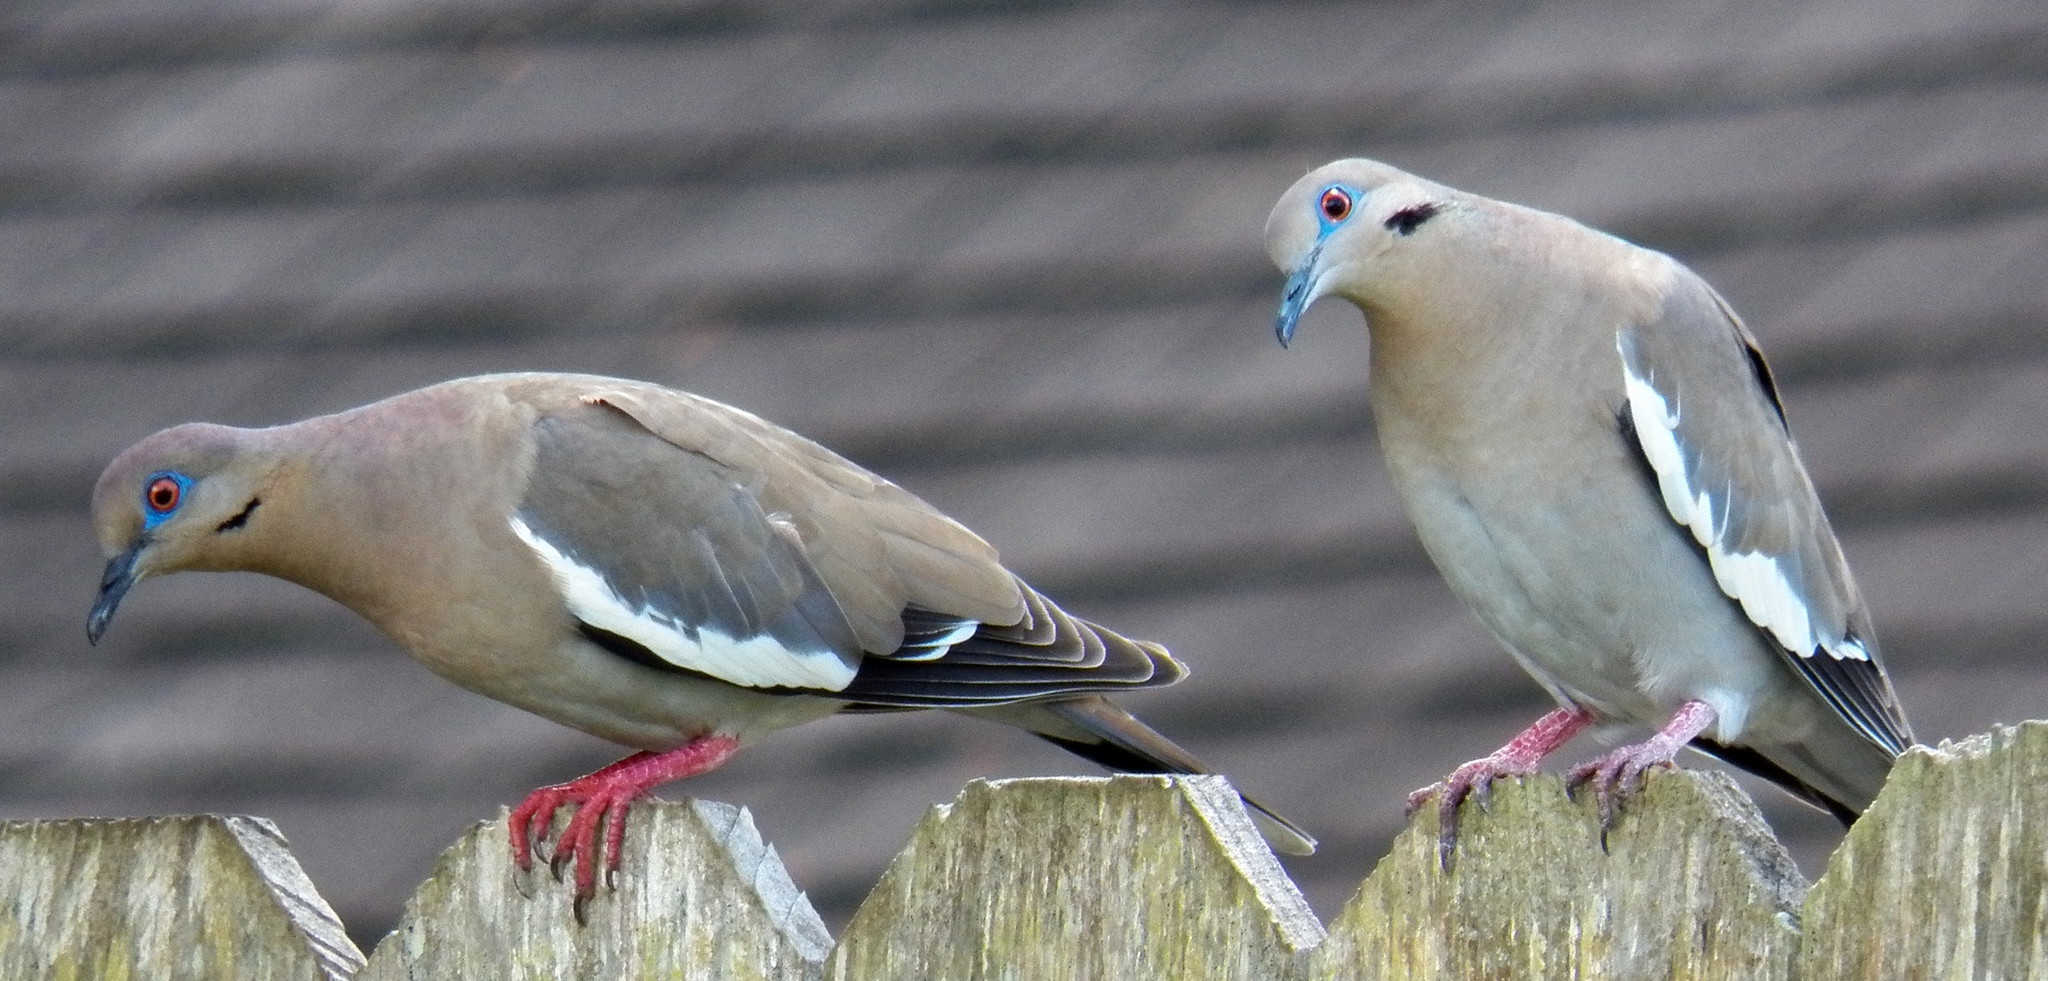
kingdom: Animalia
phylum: Chordata
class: Aves
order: Columbiformes
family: Columbidae
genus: Zenaida
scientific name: Zenaida asiatica
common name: White-winged dove
